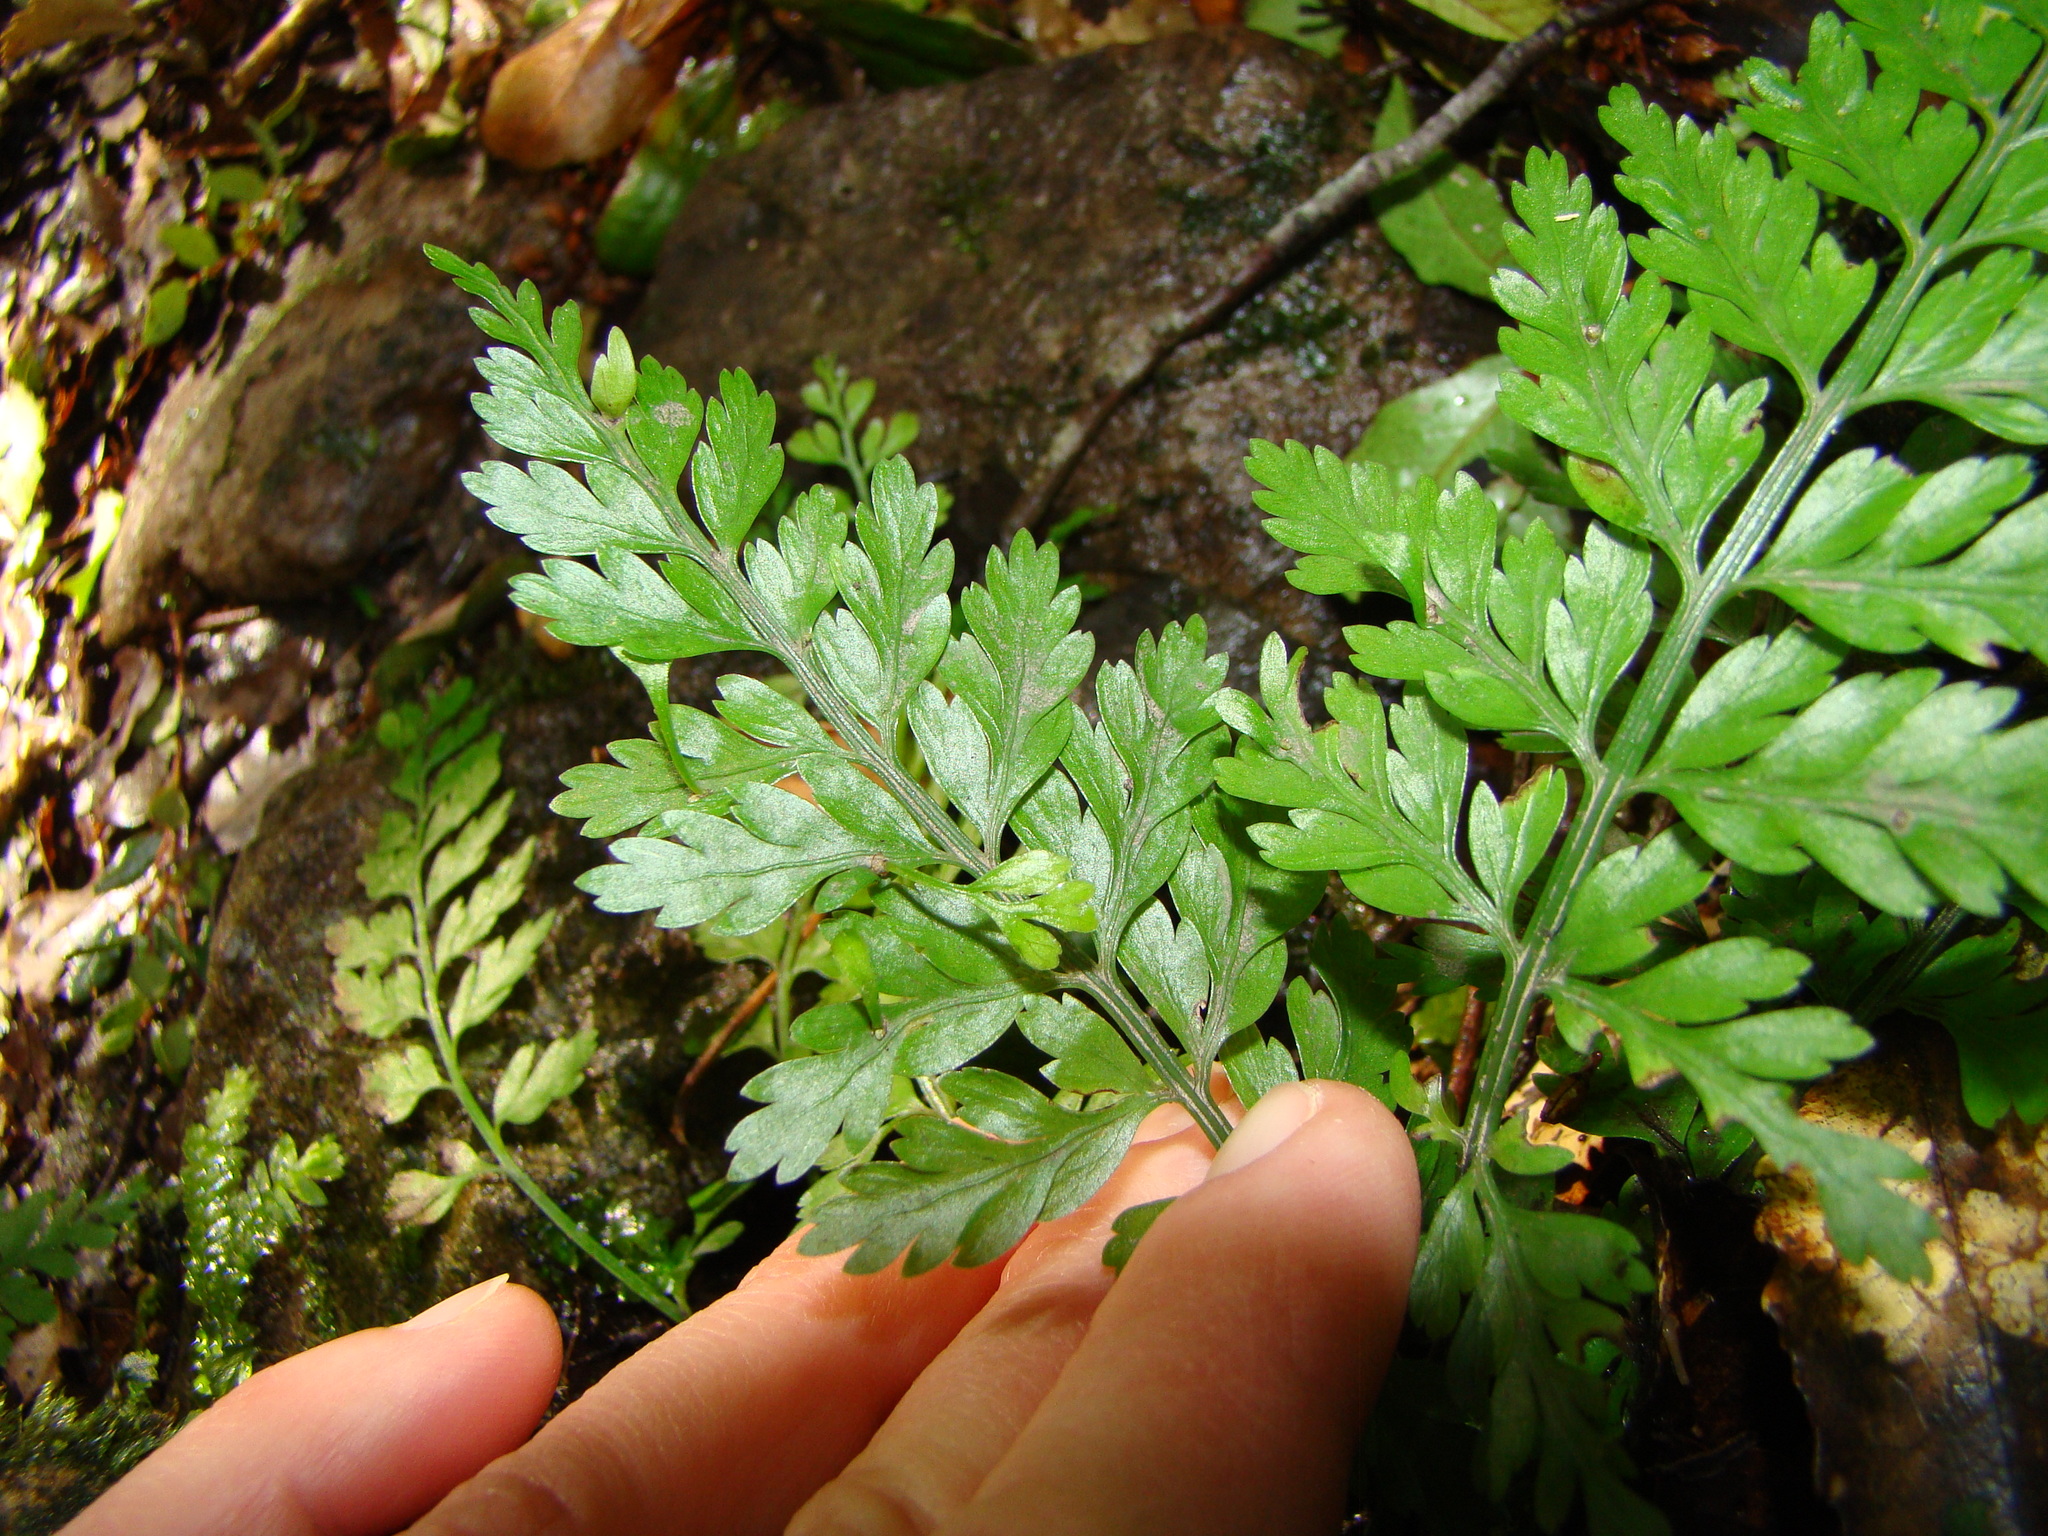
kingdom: Plantae
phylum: Tracheophyta
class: Polypodiopsida
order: Polypodiales
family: Aspleniaceae
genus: Asplenium
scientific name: Asplenium bulbiferum
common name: Mother fern
